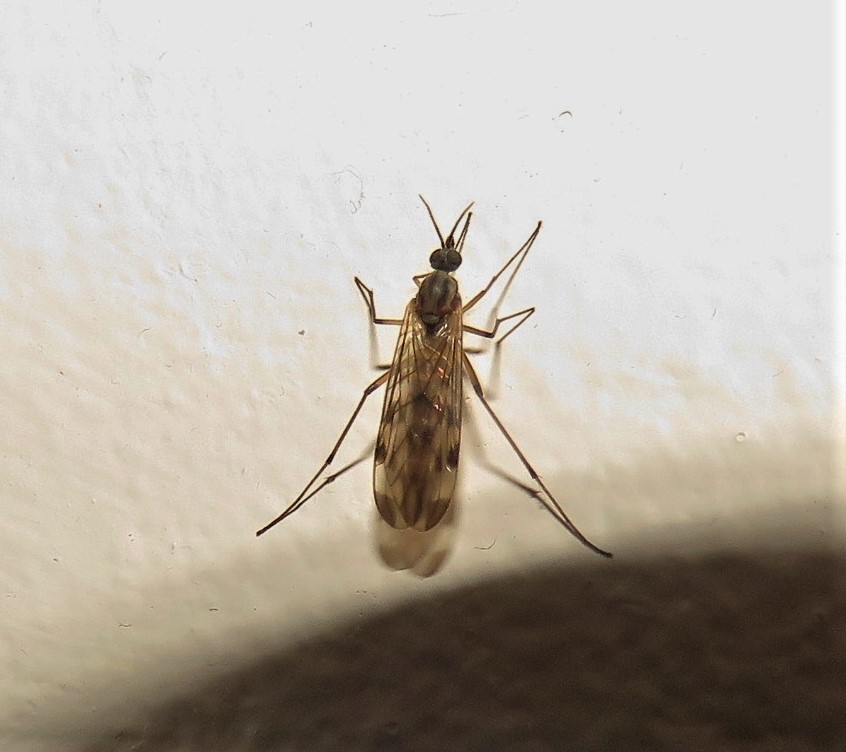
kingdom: Animalia
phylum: Arthropoda
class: Insecta
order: Diptera
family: Anisopodidae
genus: Sylvicola
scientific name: Sylvicola fenestralis
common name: Window gnat
